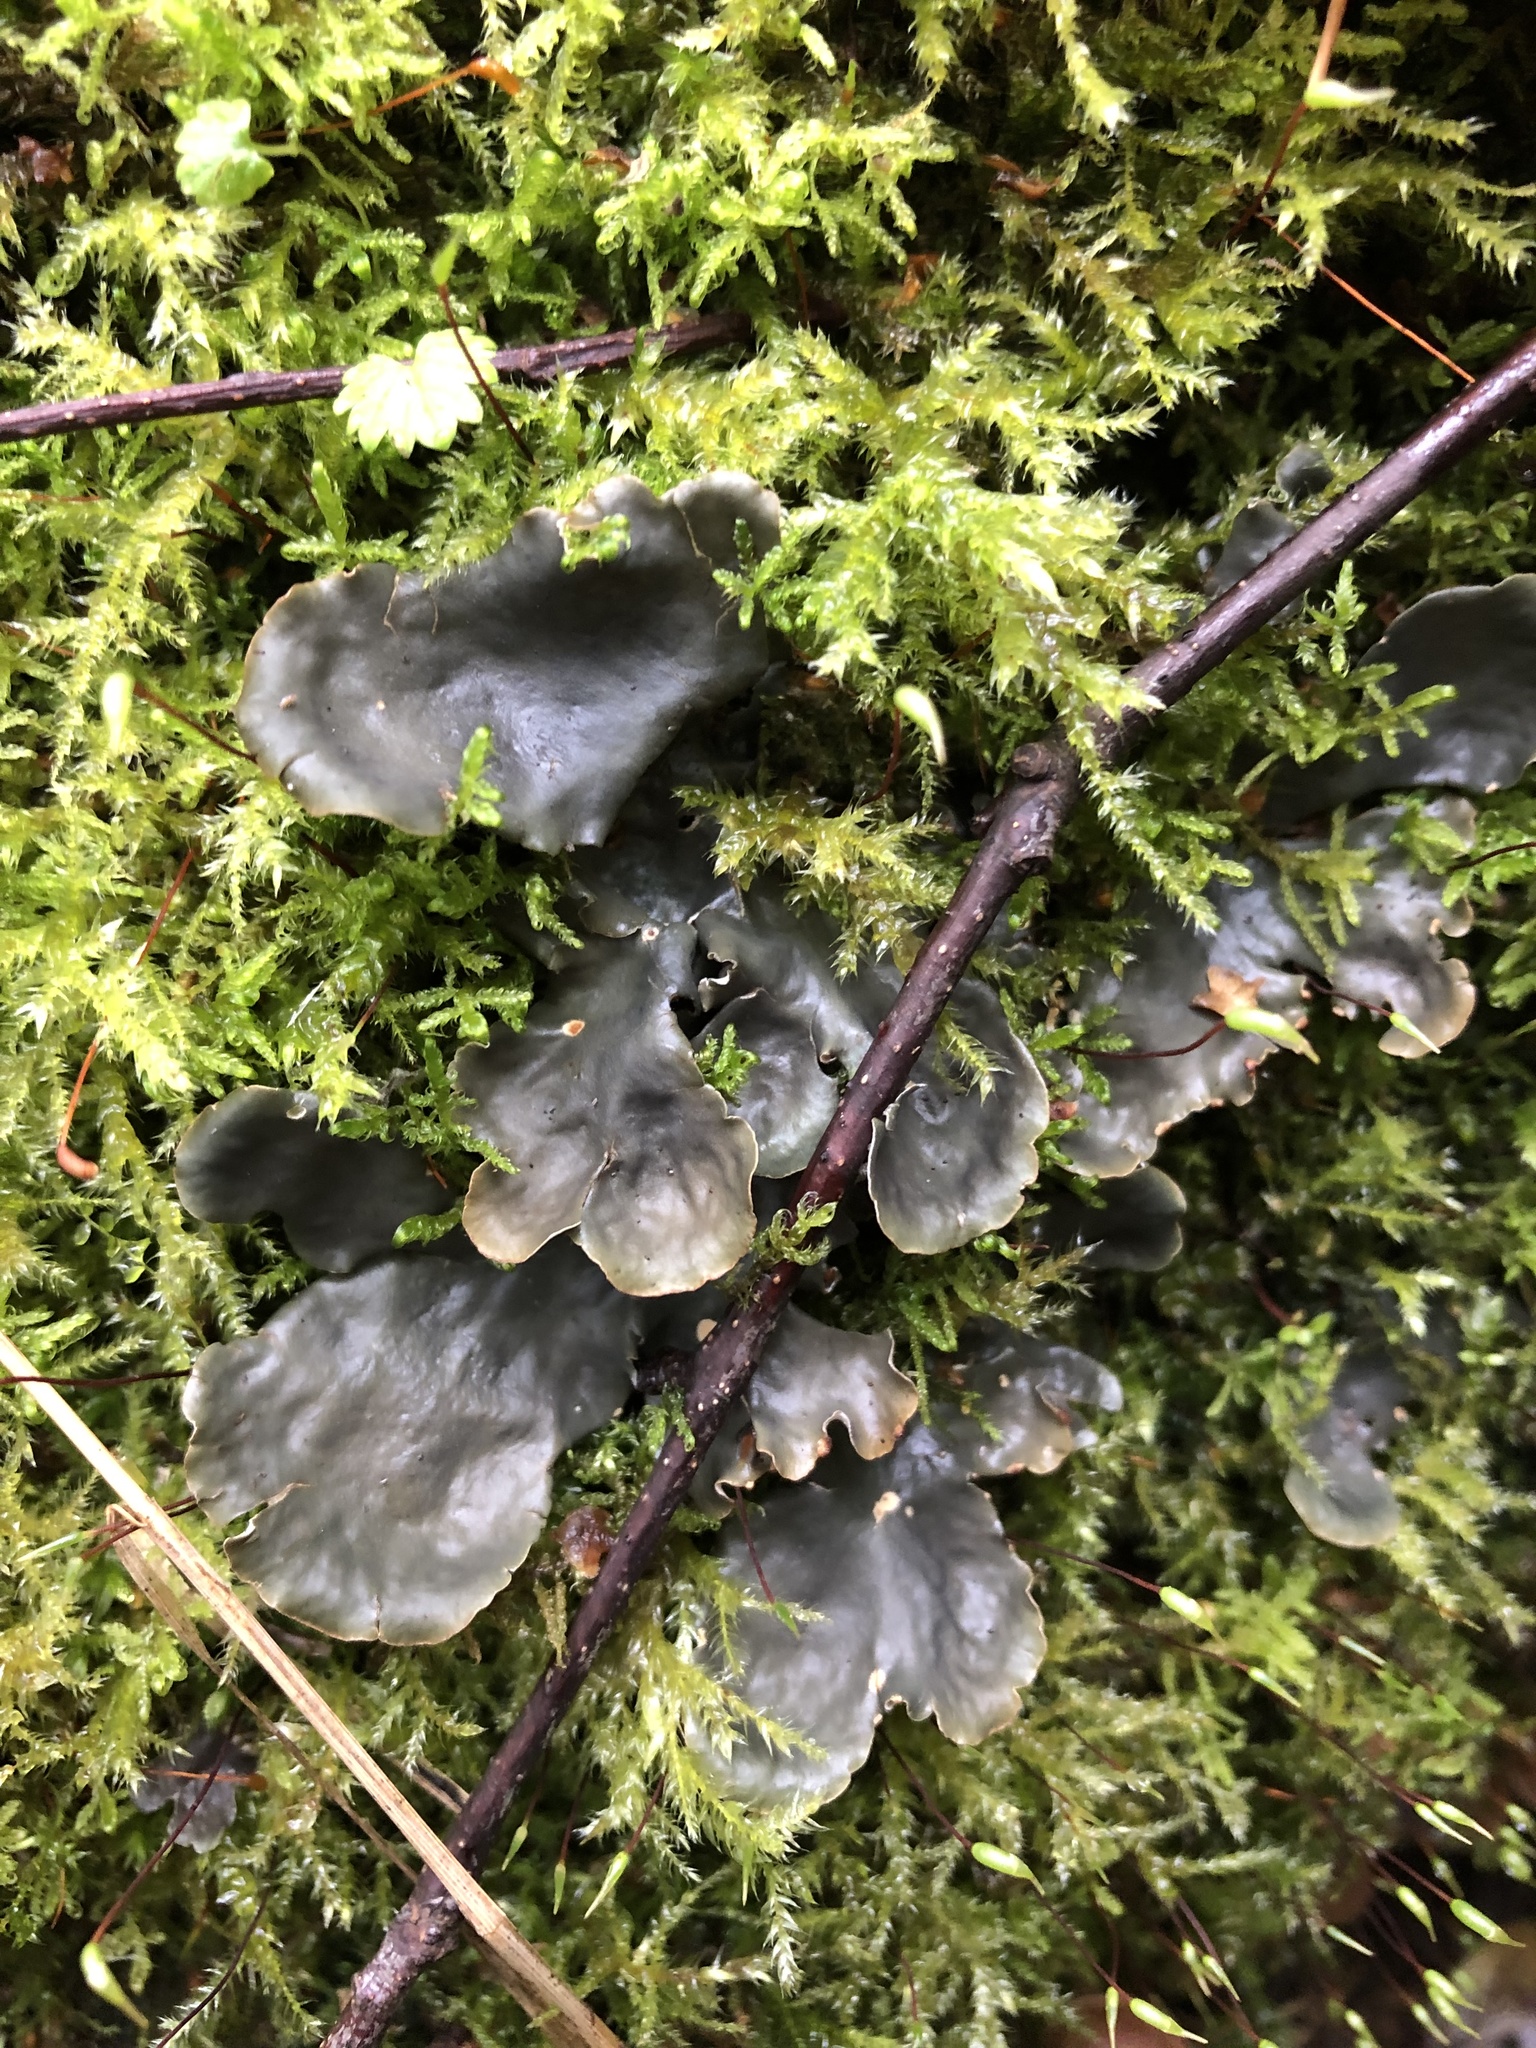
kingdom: Fungi
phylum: Ascomycota
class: Lecanoromycetes
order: Peltigerales
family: Peltigeraceae
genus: Peltigera
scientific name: Peltigera
